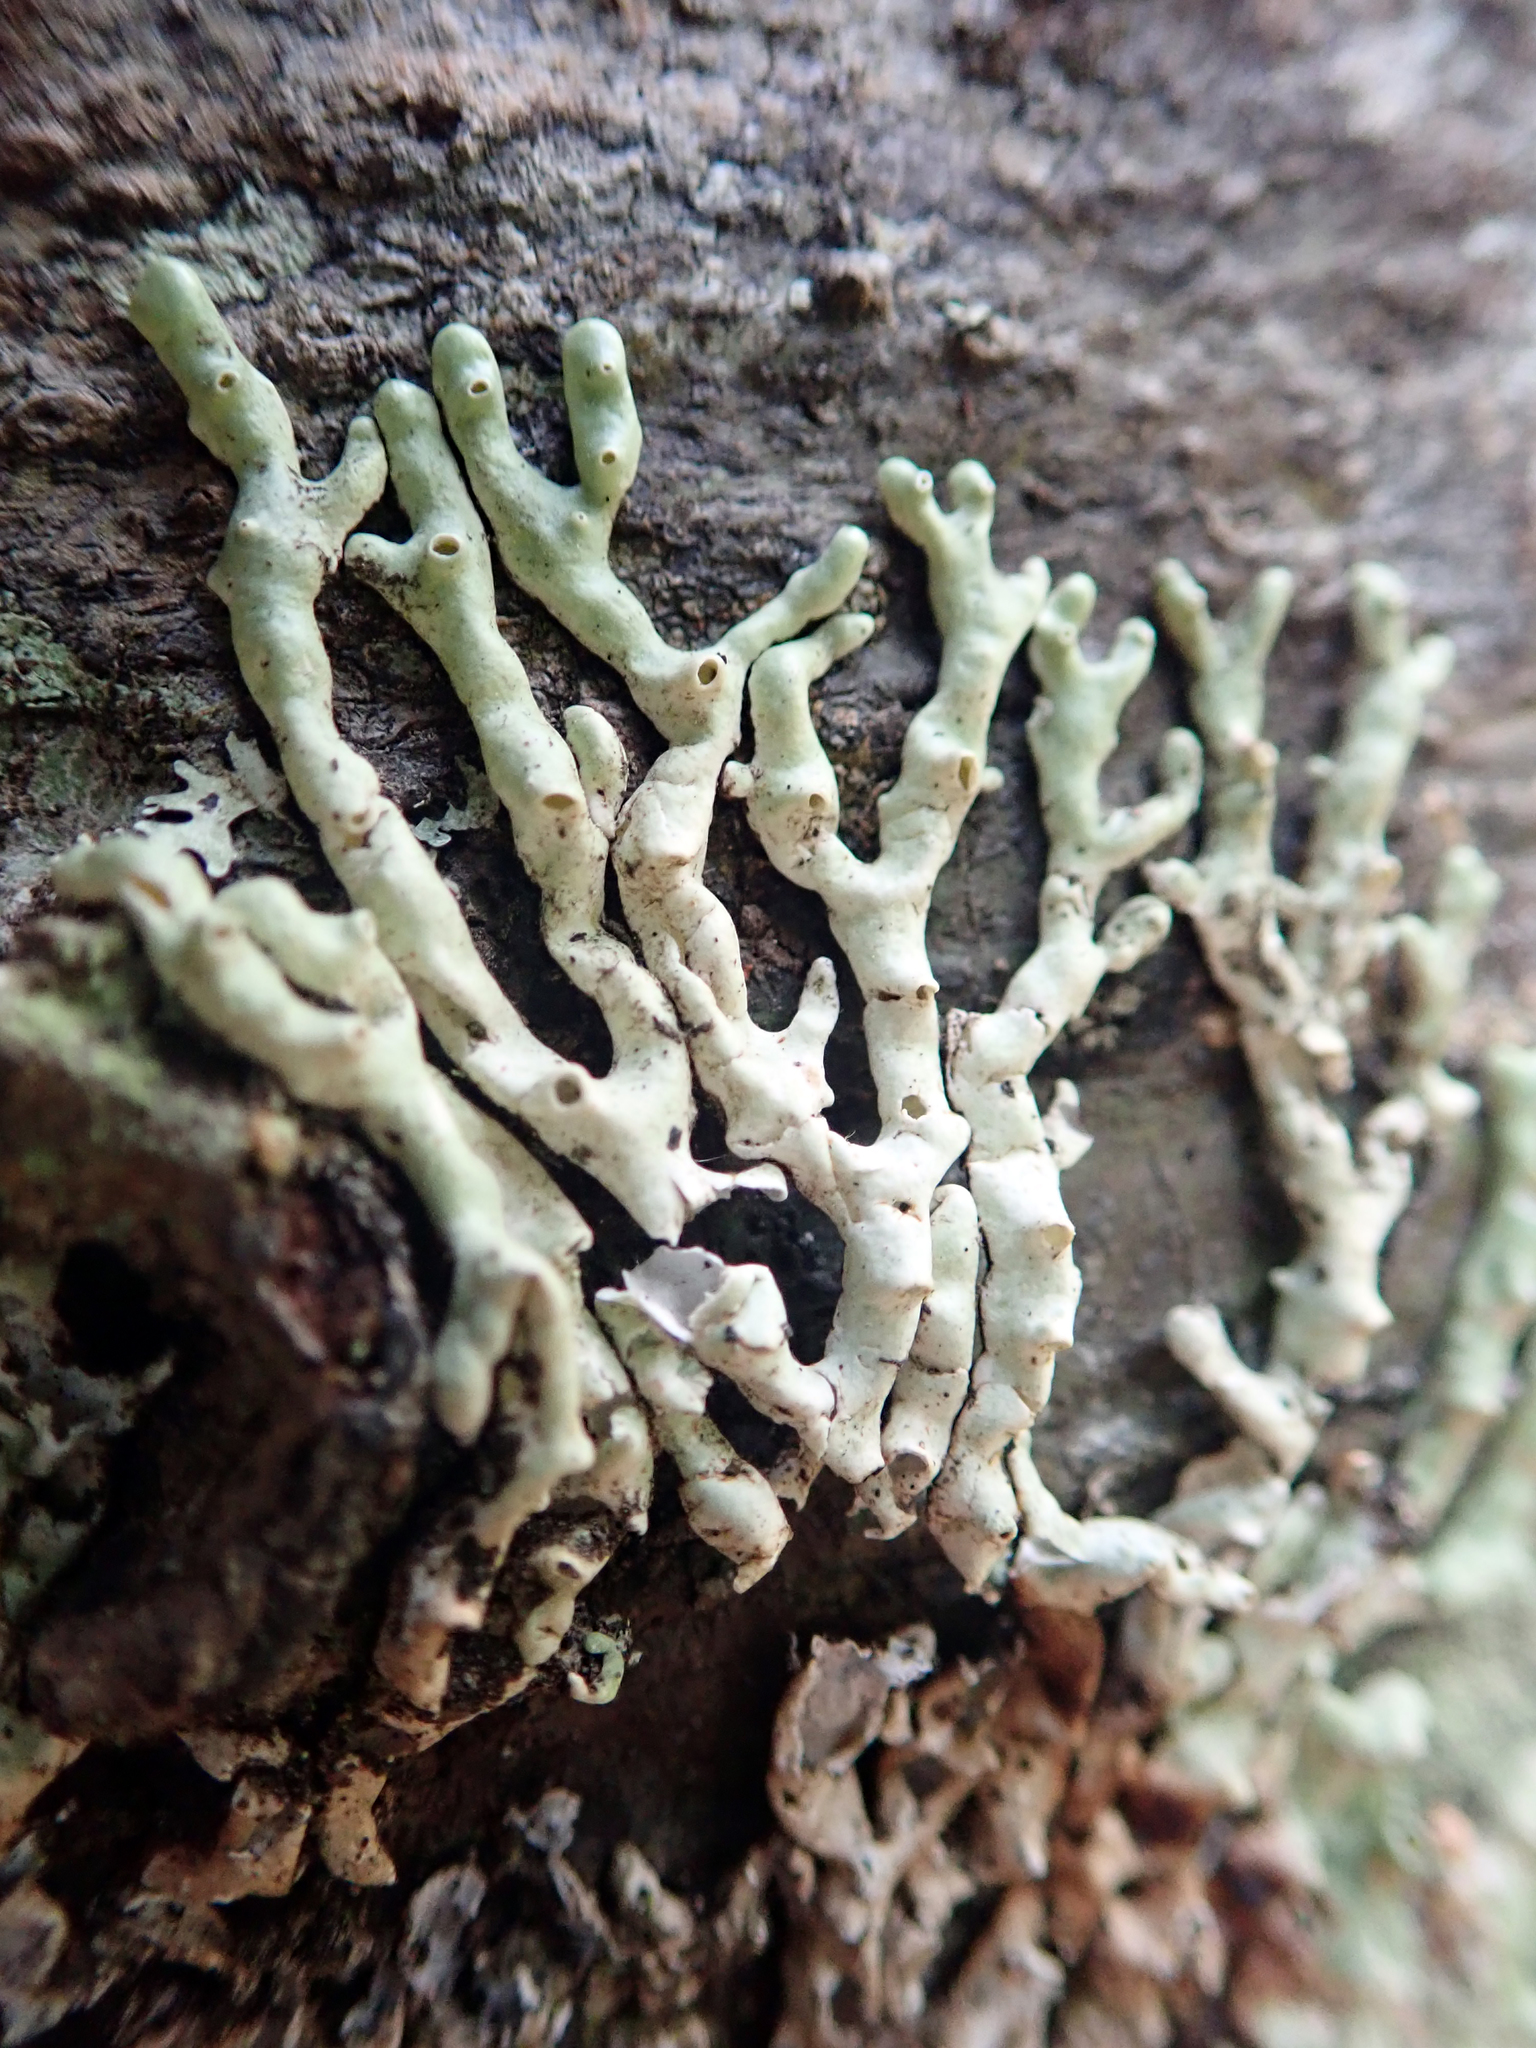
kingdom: Fungi
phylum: Ascomycota
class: Lecanoromycetes
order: Lecanorales
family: Parmeliaceae
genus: Menegazzia
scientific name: Menegazzia aucklandica
